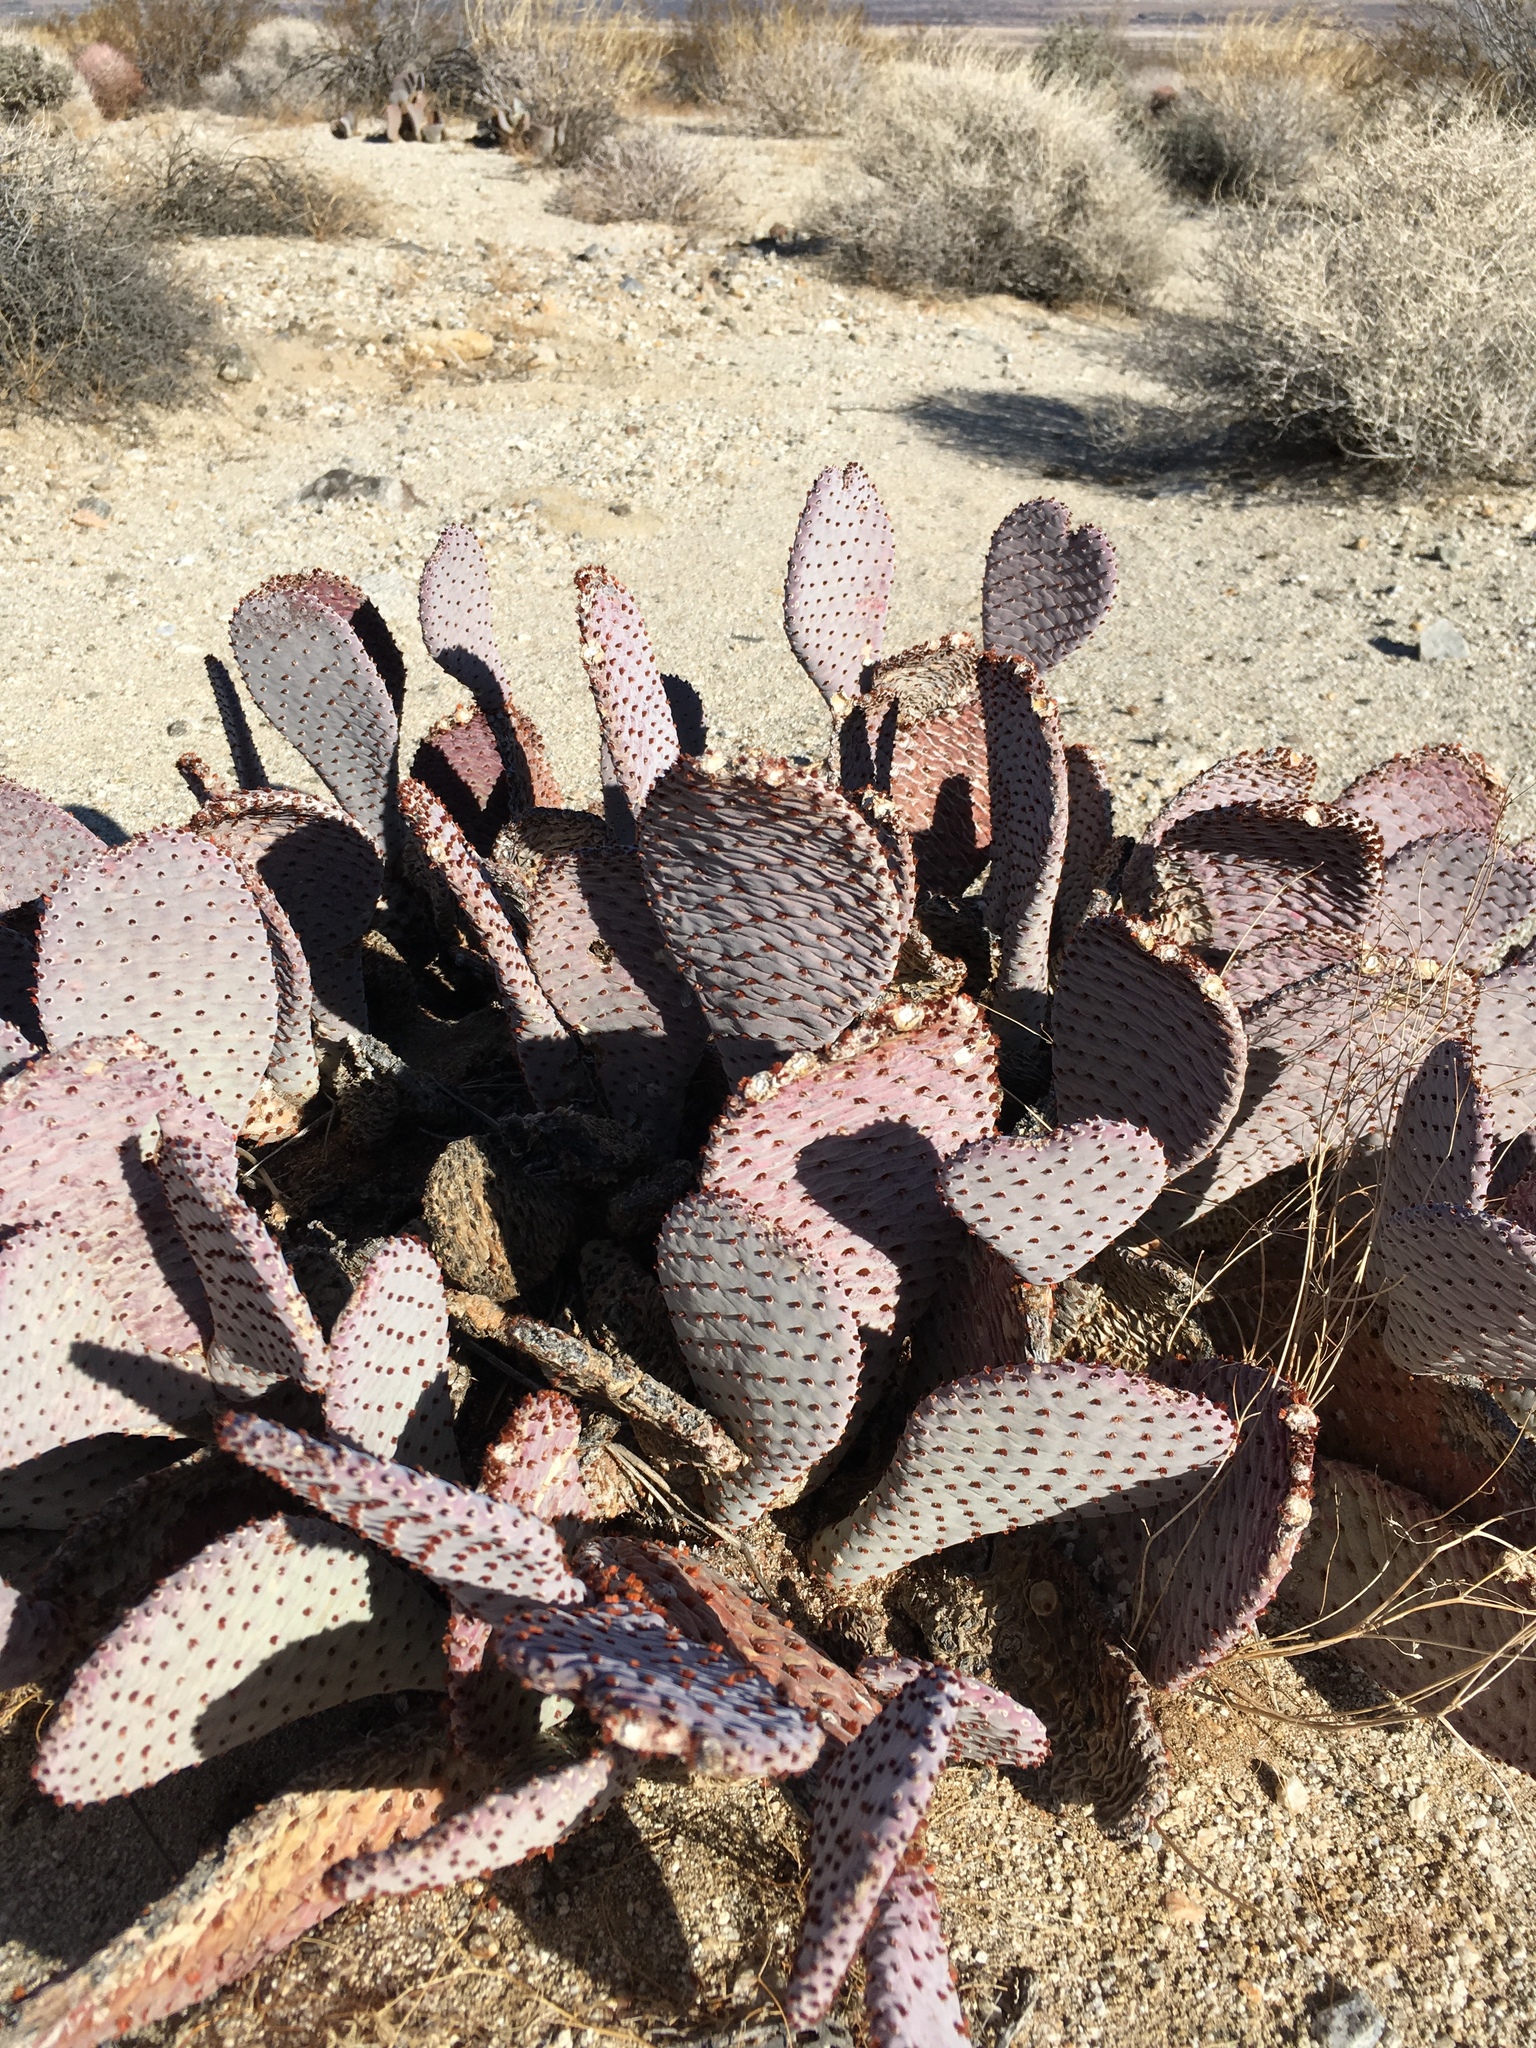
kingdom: Plantae
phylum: Tracheophyta
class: Magnoliopsida
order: Caryophyllales
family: Cactaceae
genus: Opuntia
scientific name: Opuntia basilaris
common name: Beavertail prickly-pear
